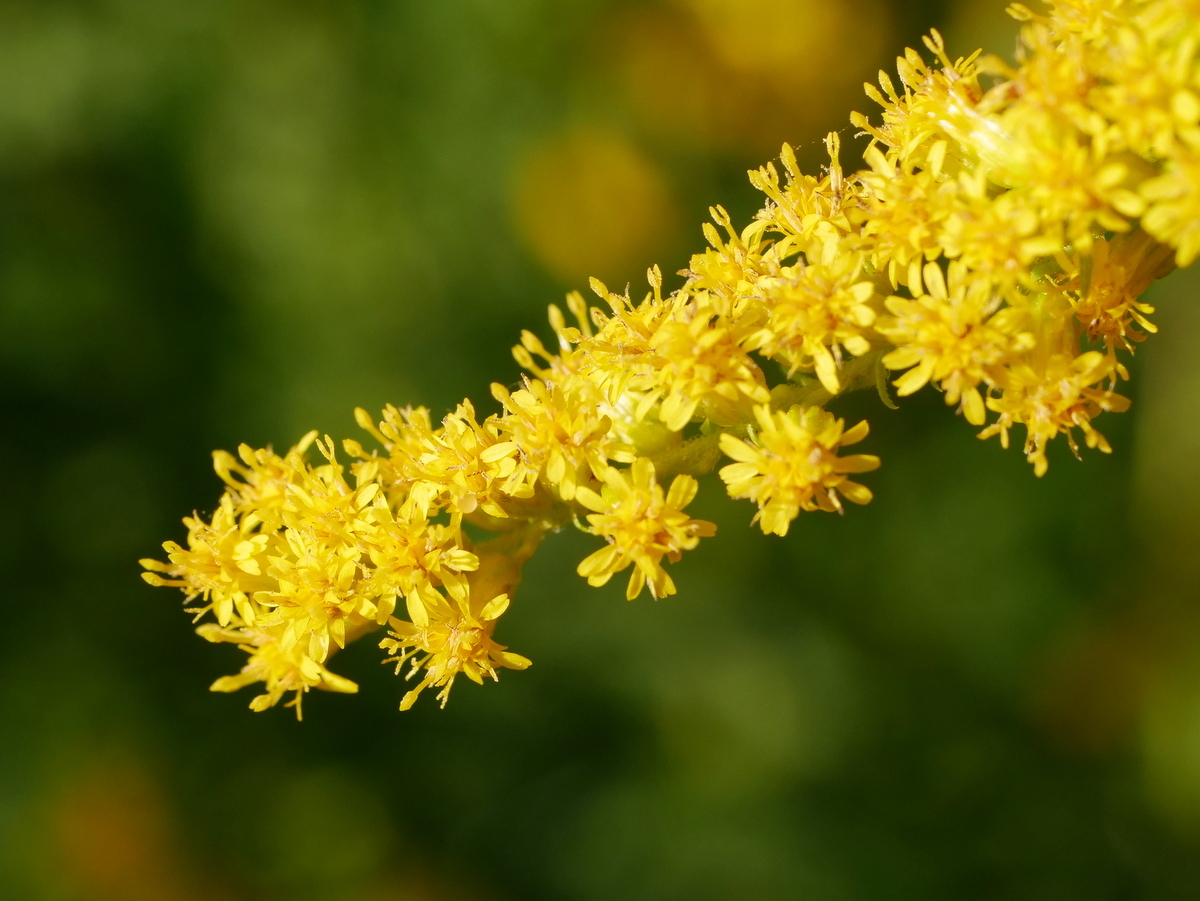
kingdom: Plantae
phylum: Tracheophyta
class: Magnoliopsida
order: Asterales
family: Asteraceae
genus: Solidago
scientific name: Solidago canadensis
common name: Canada goldenrod
